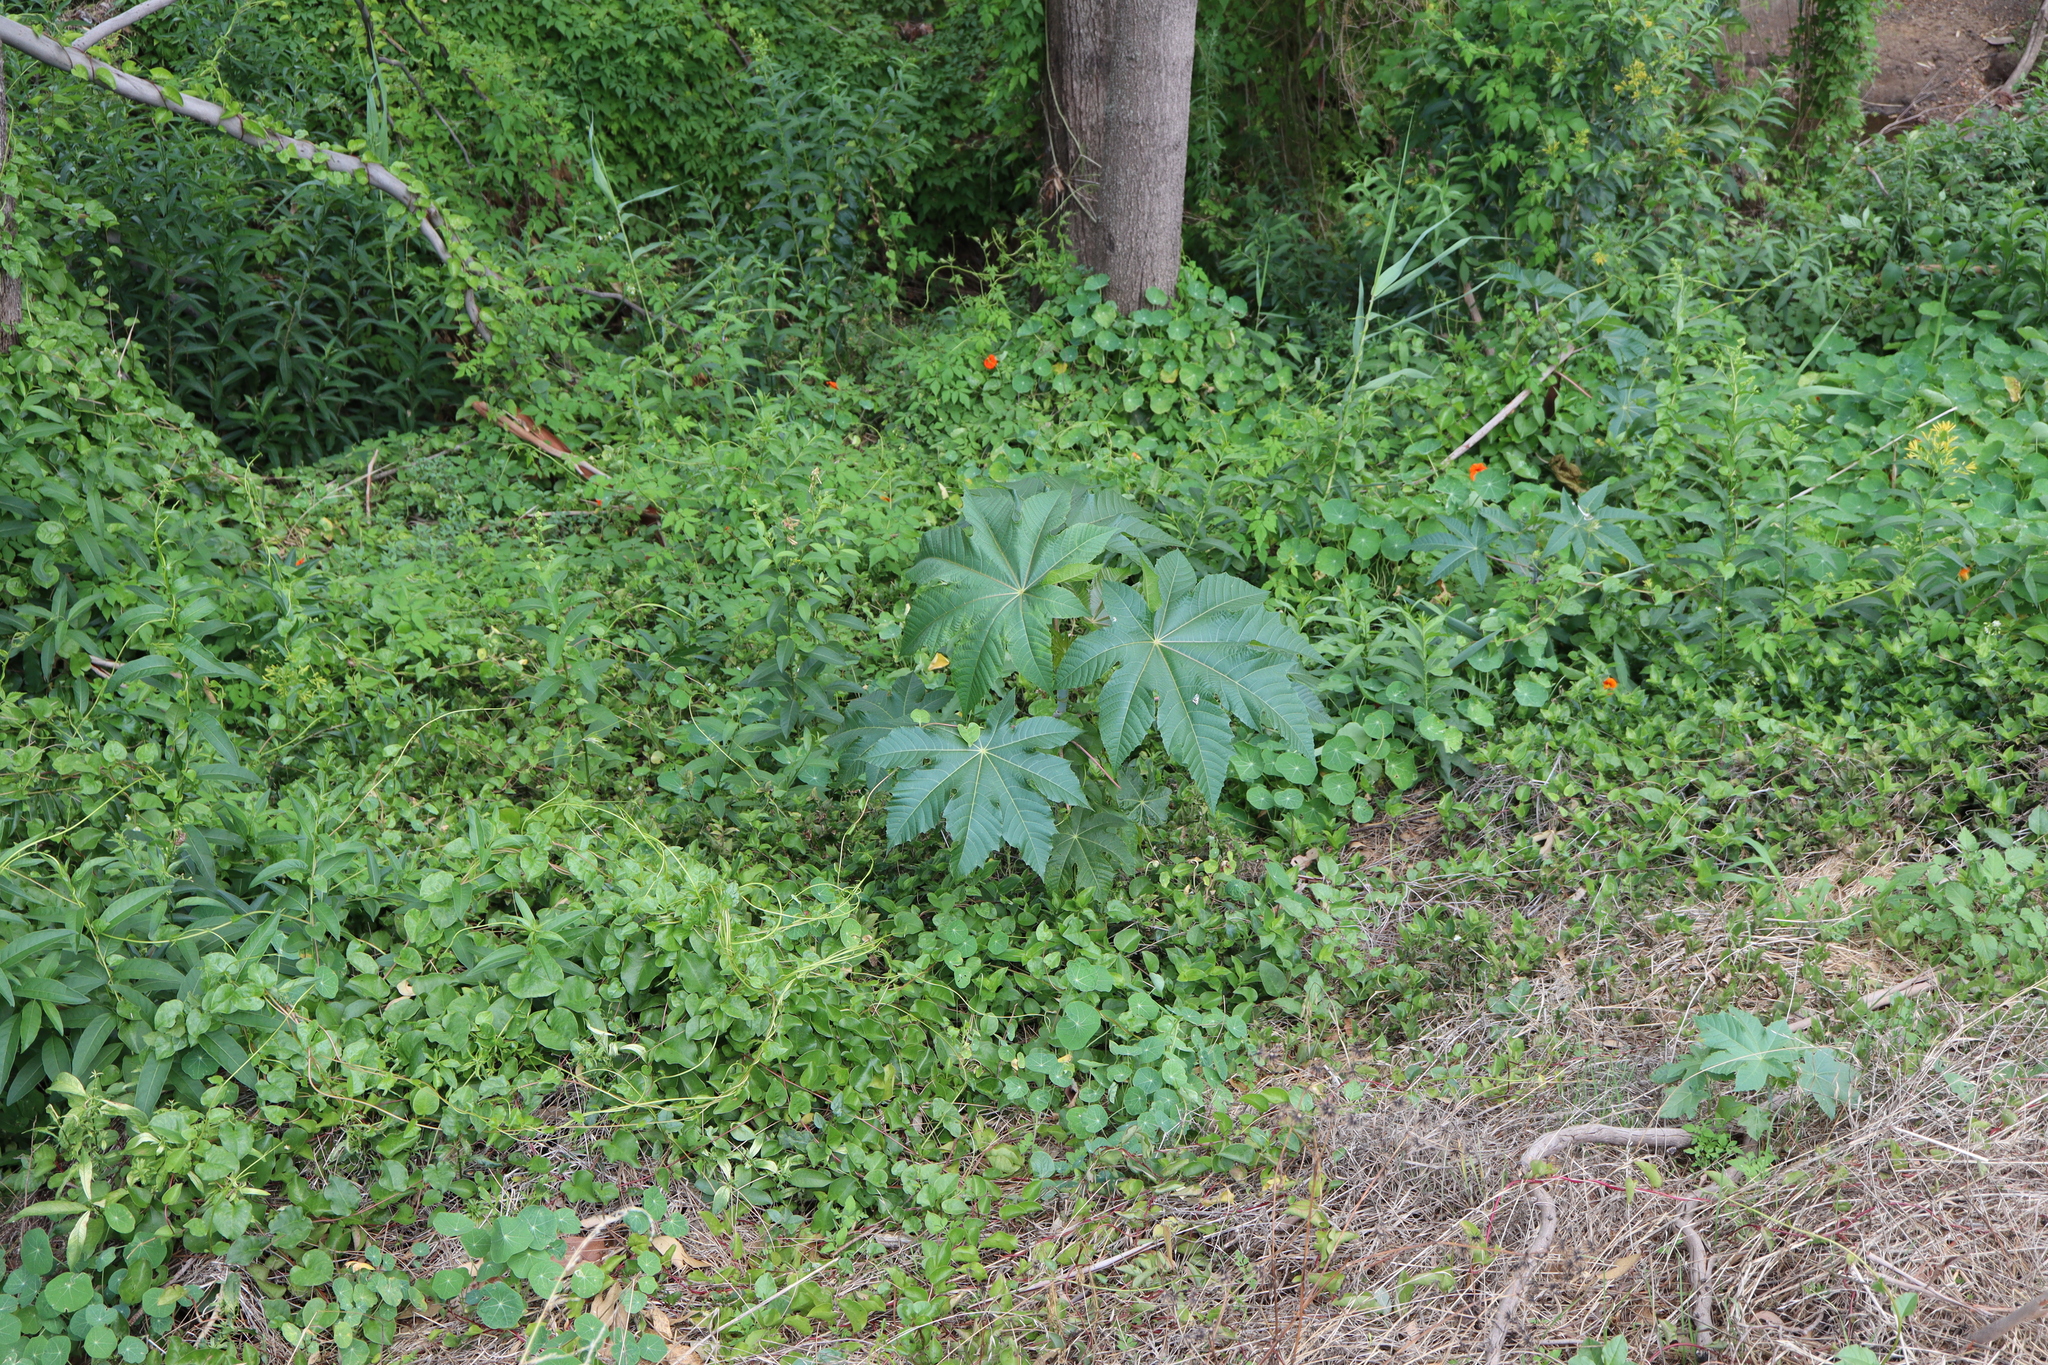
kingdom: Plantae
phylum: Tracheophyta
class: Magnoliopsida
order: Malpighiales
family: Euphorbiaceae
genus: Ricinus
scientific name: Ricinus communis
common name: Castor-oil-plant
